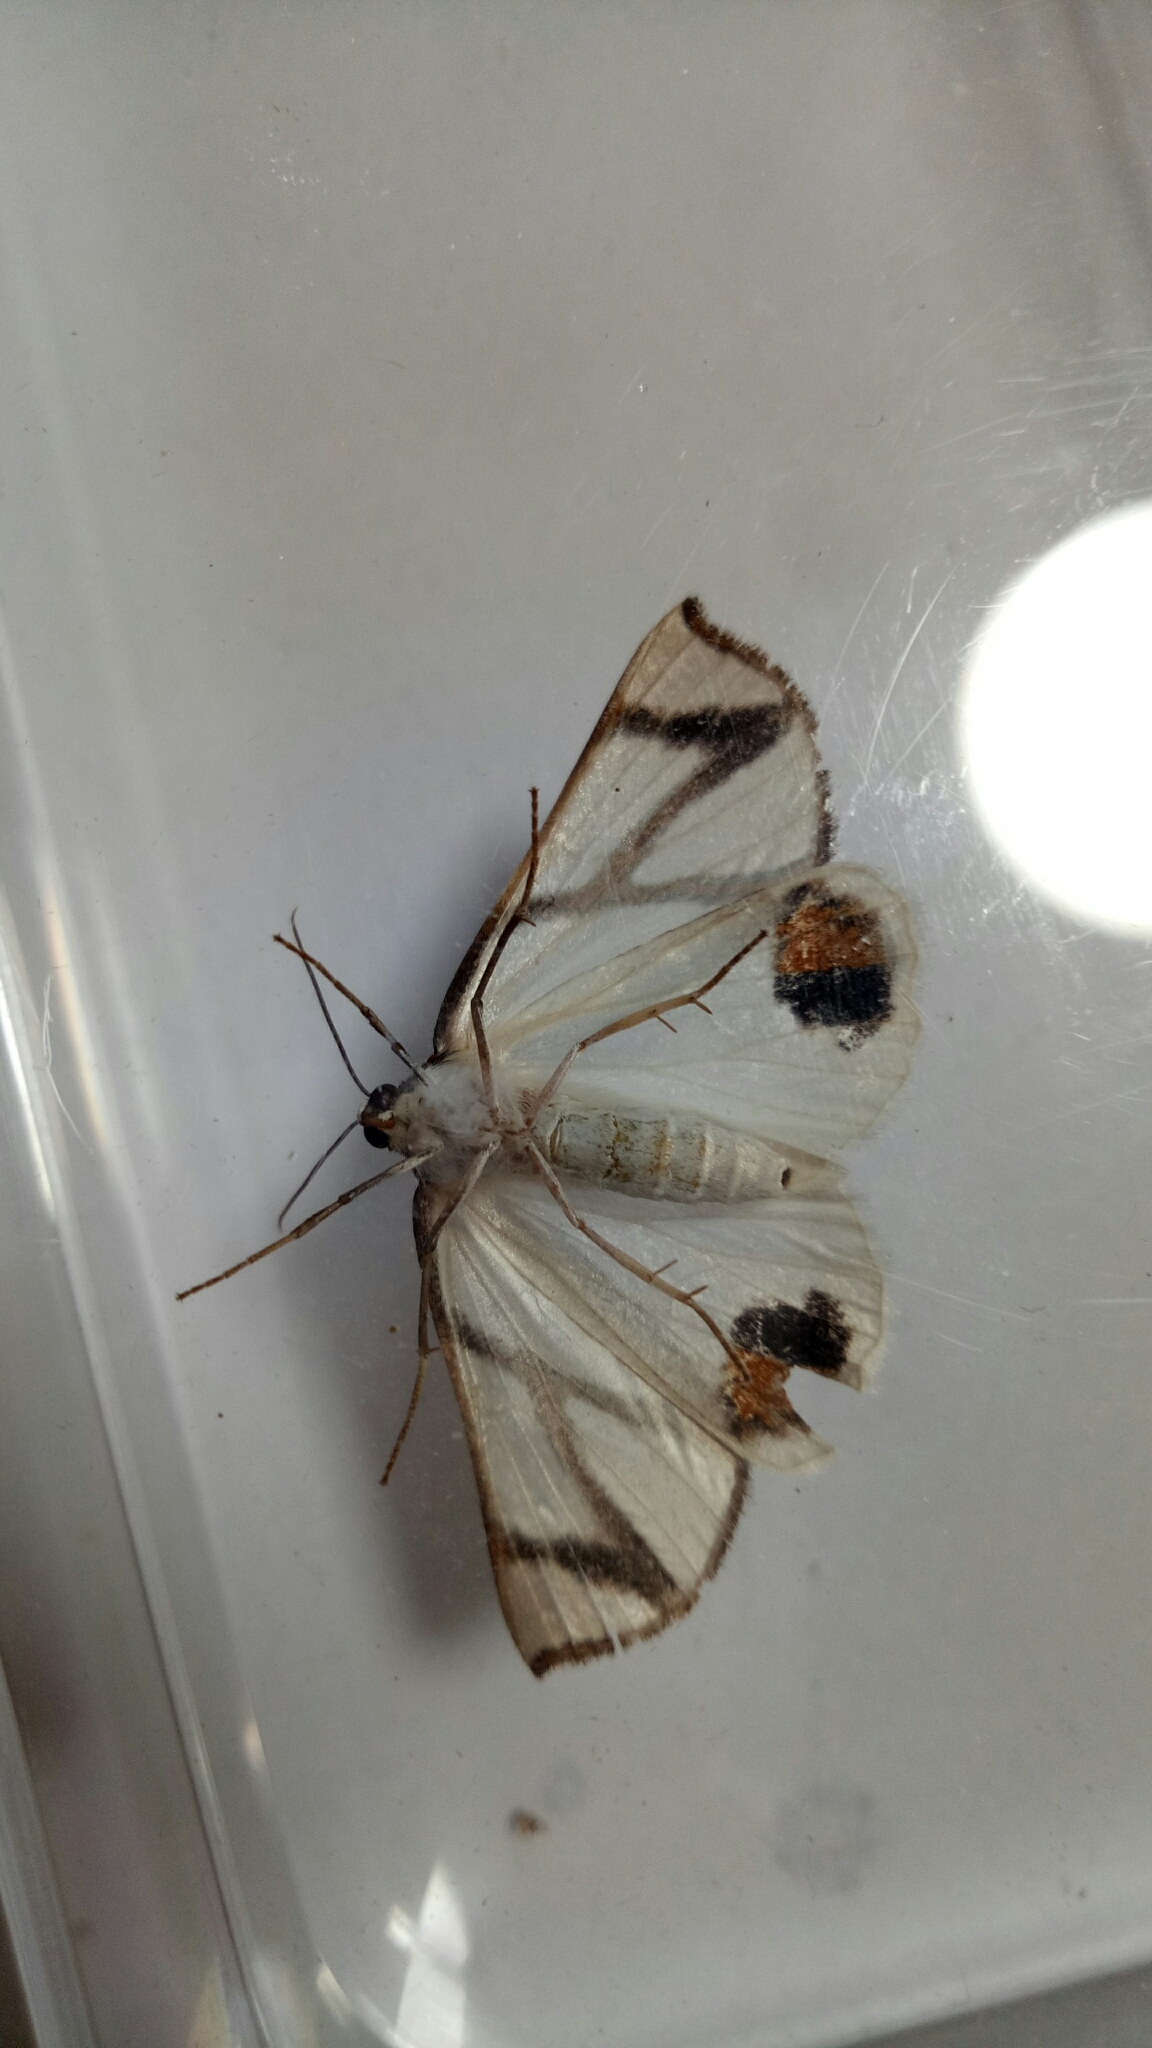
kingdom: Animalia
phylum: Arthropoda
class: Insecta
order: Lepidoptera
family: Geometridae
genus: Thalaina
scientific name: Thalaina clara
